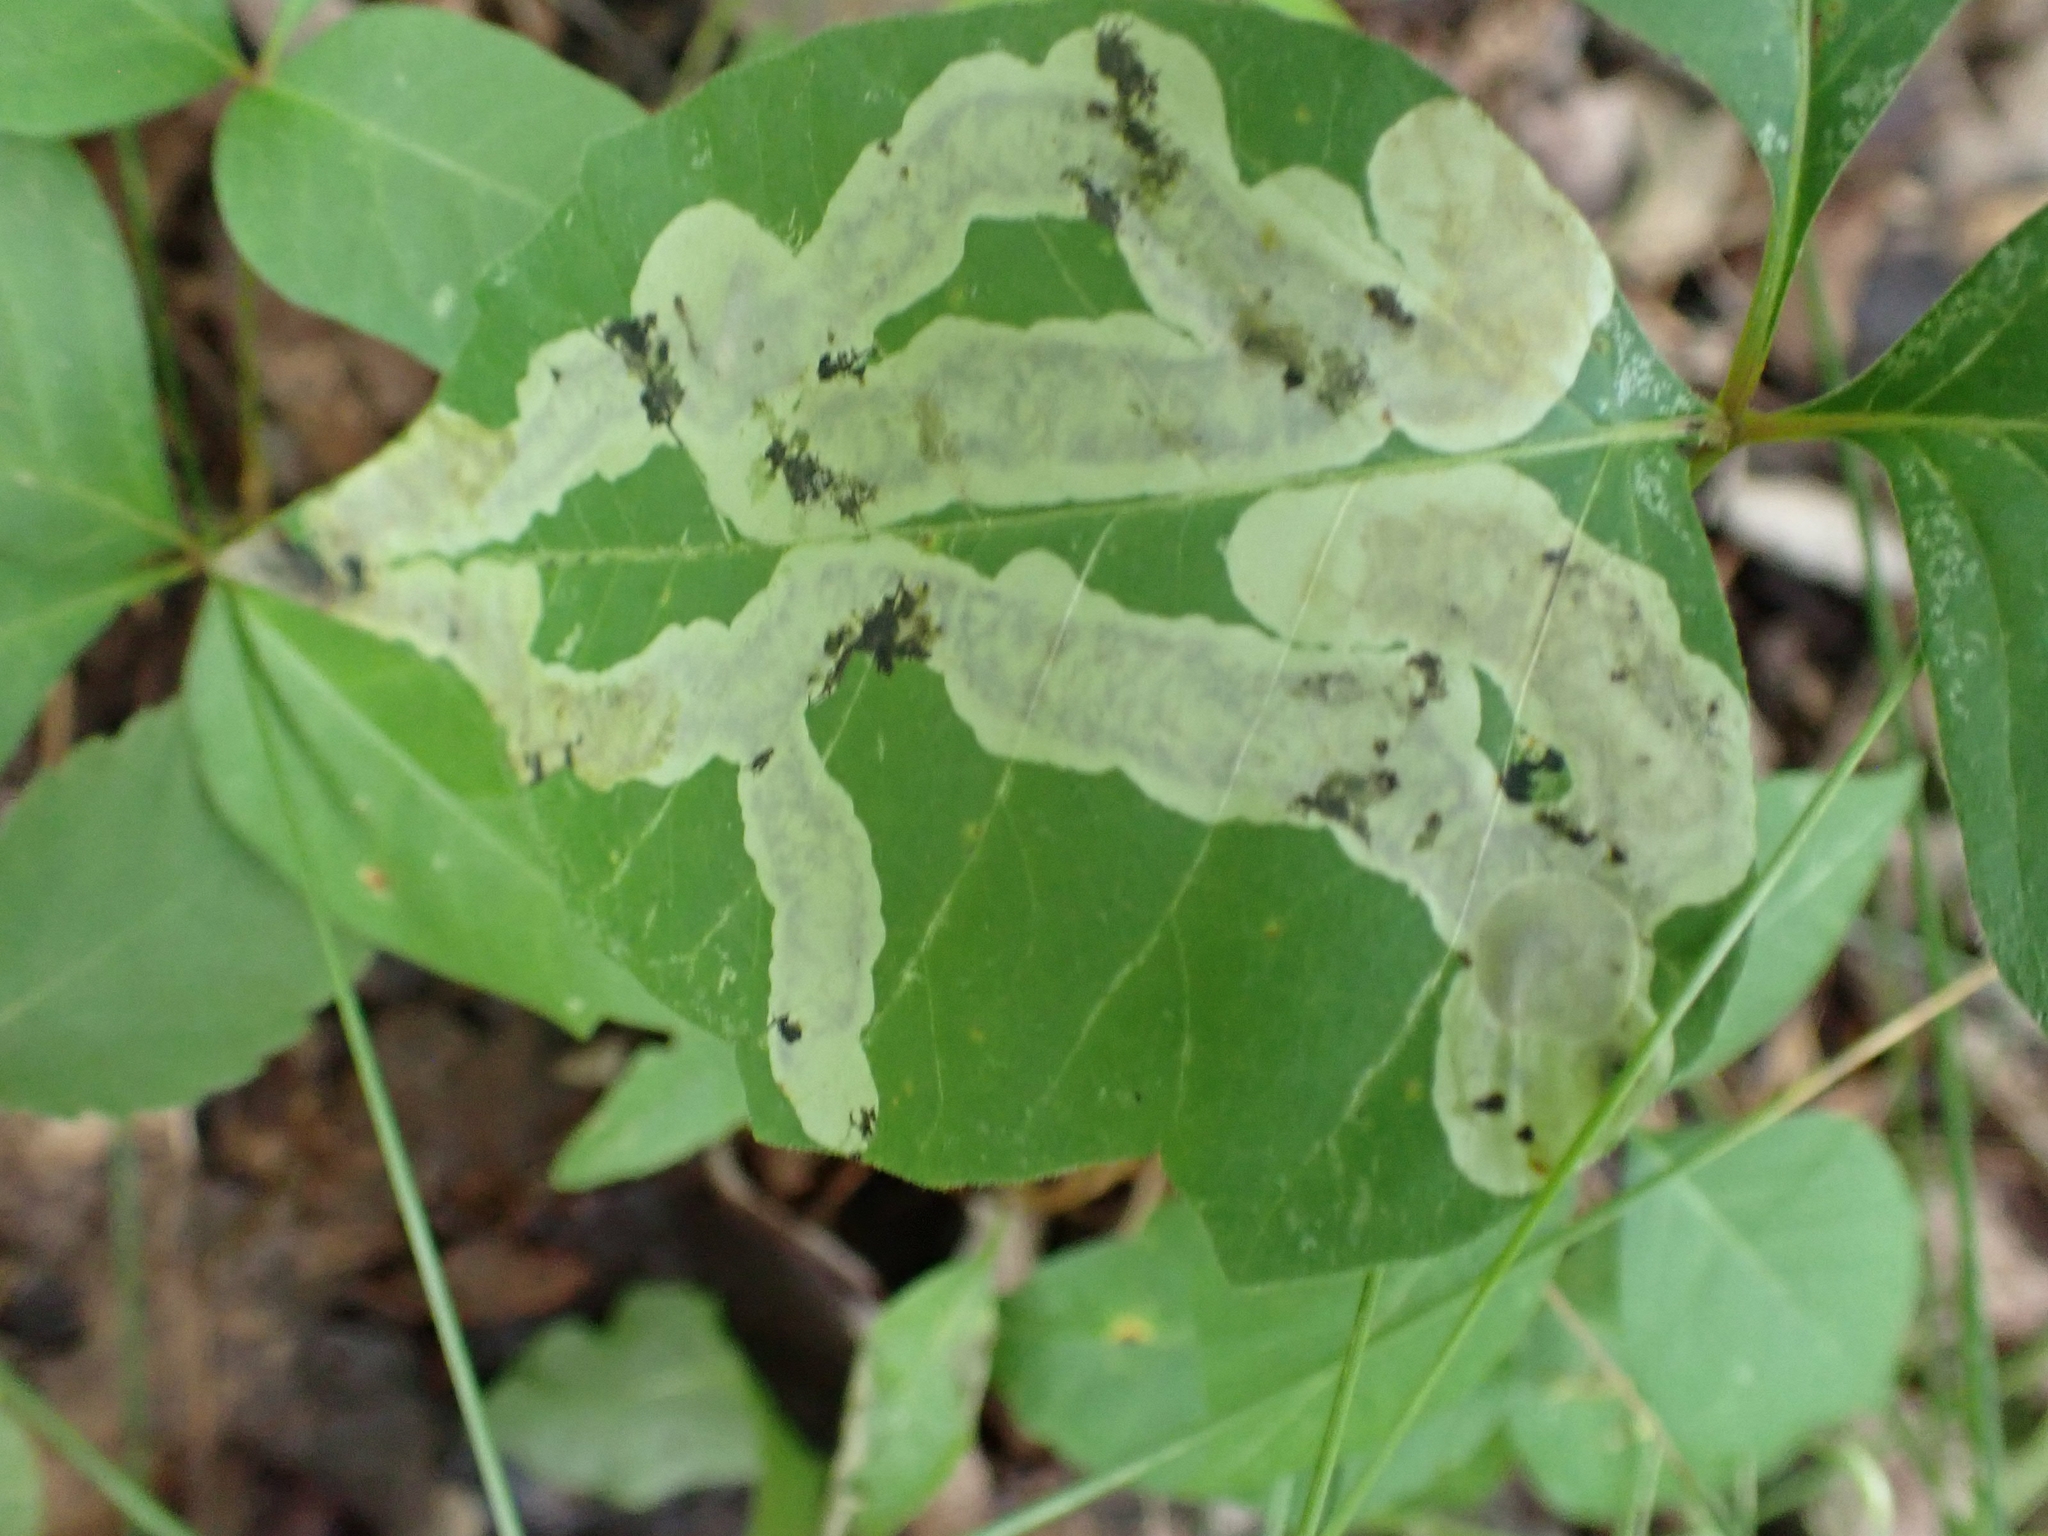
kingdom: Animalia
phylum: Arthropoda
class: Insecta
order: Lepidoptera
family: Gracillariidae
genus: Cameraria
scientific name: Cameraria guttifinitella
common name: Poison ivy leaf-miner moth
